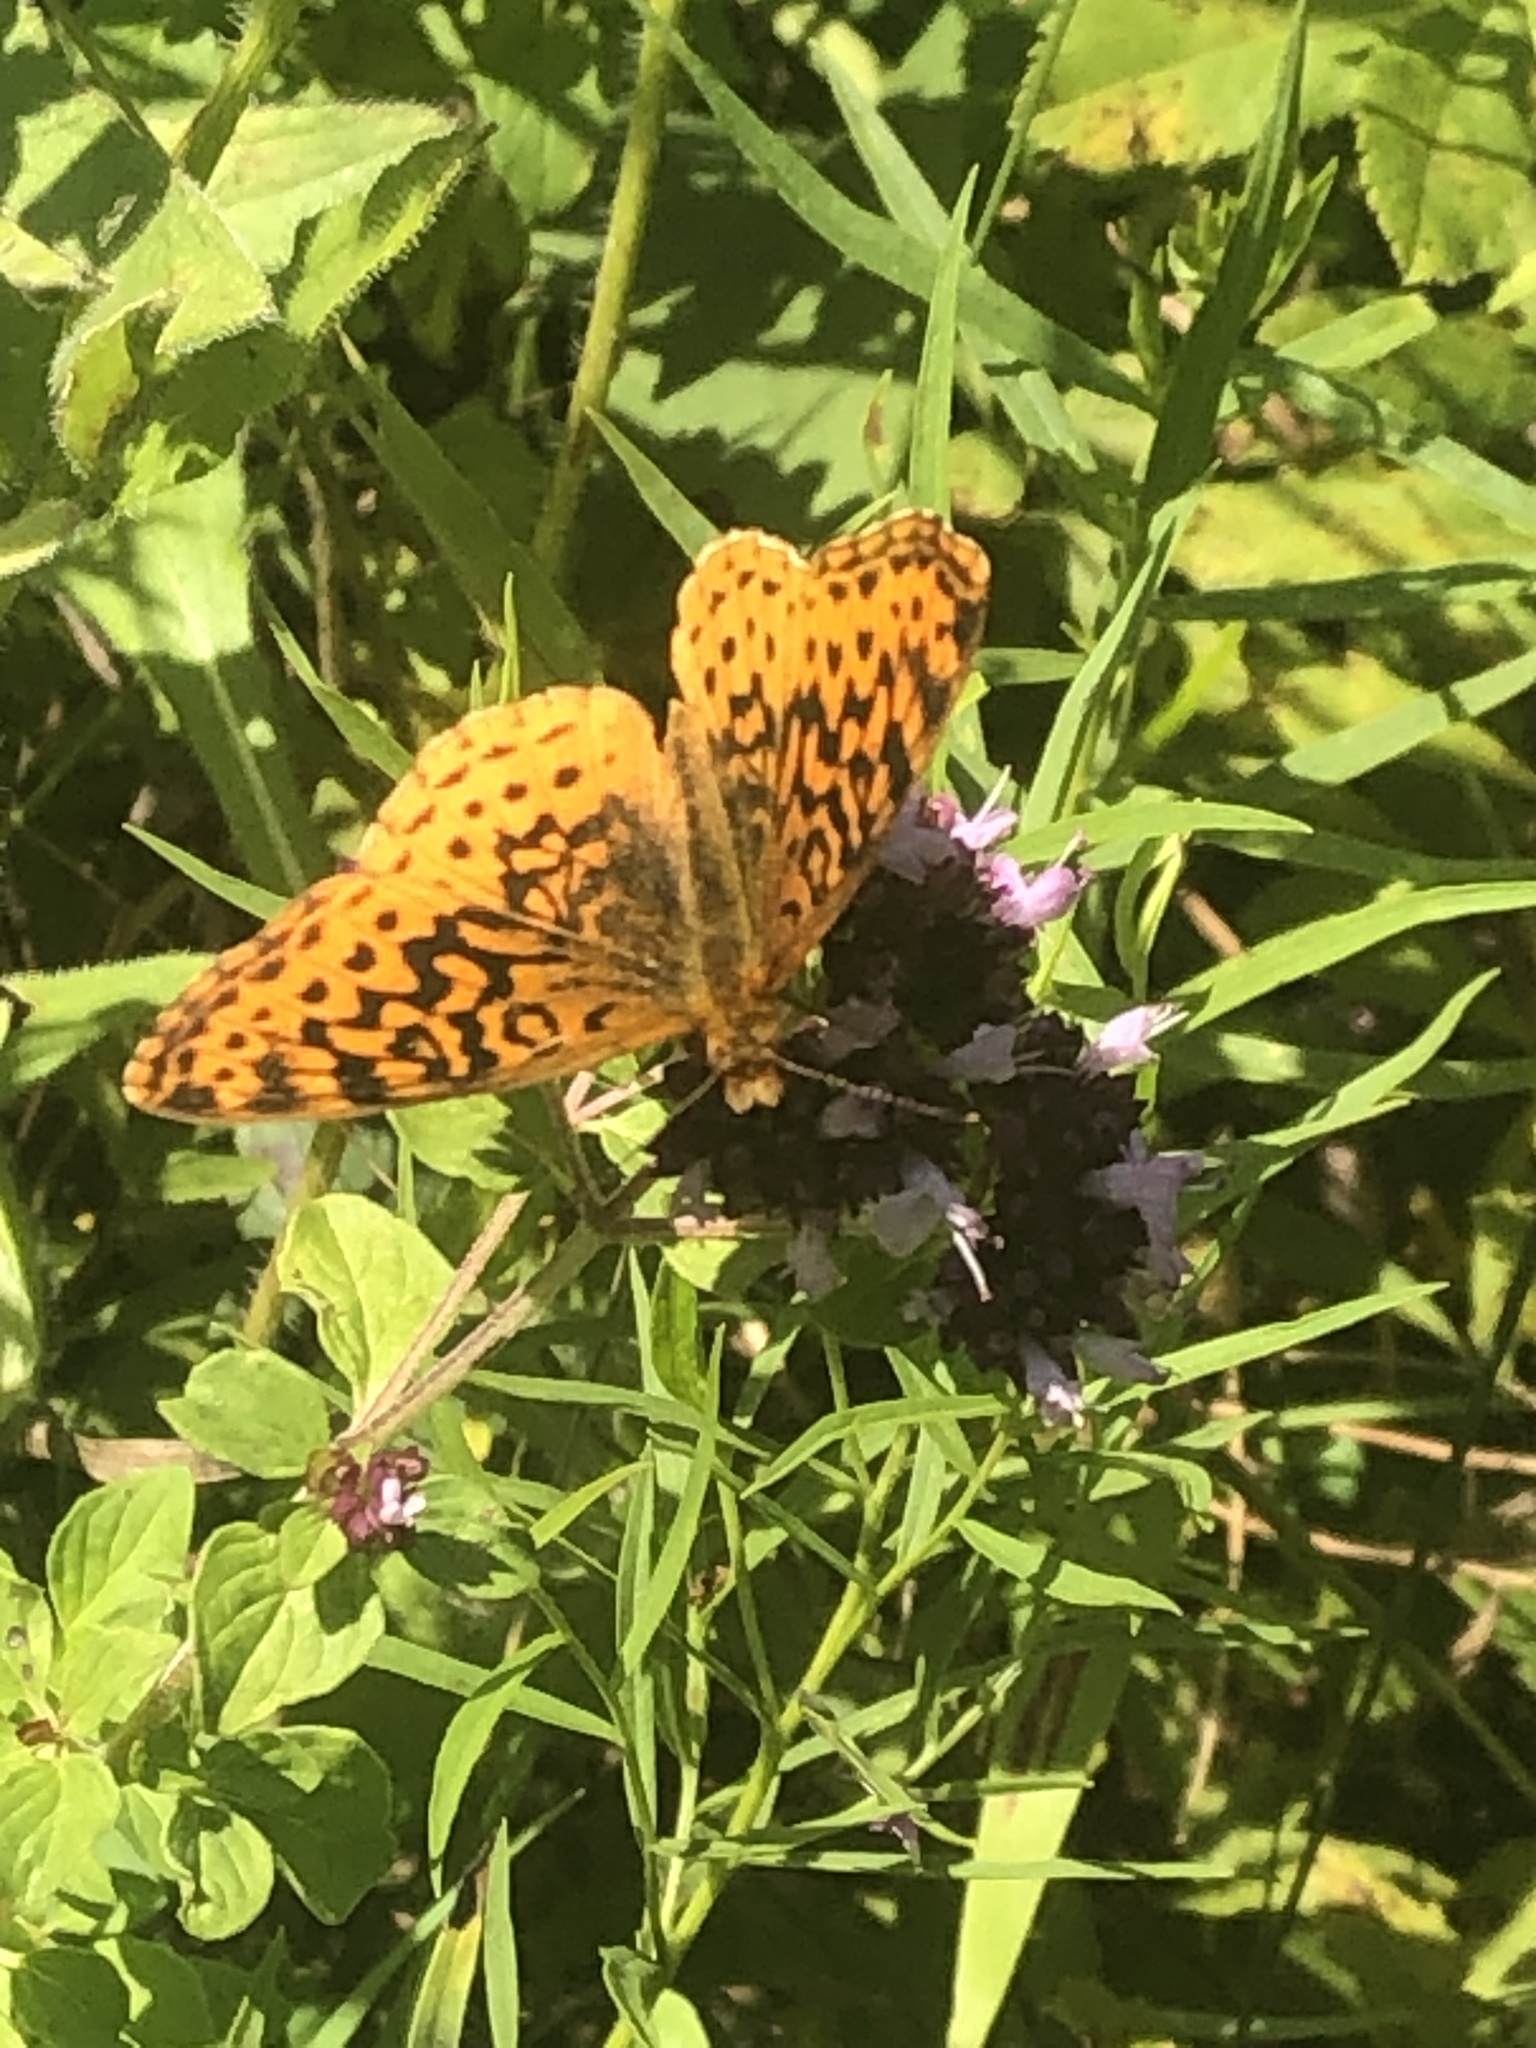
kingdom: Animalia
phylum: Arthropoda
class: Insecta
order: Lepidoptera
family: Nymphalidae
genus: Clossiana
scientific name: Clossiana toddi
